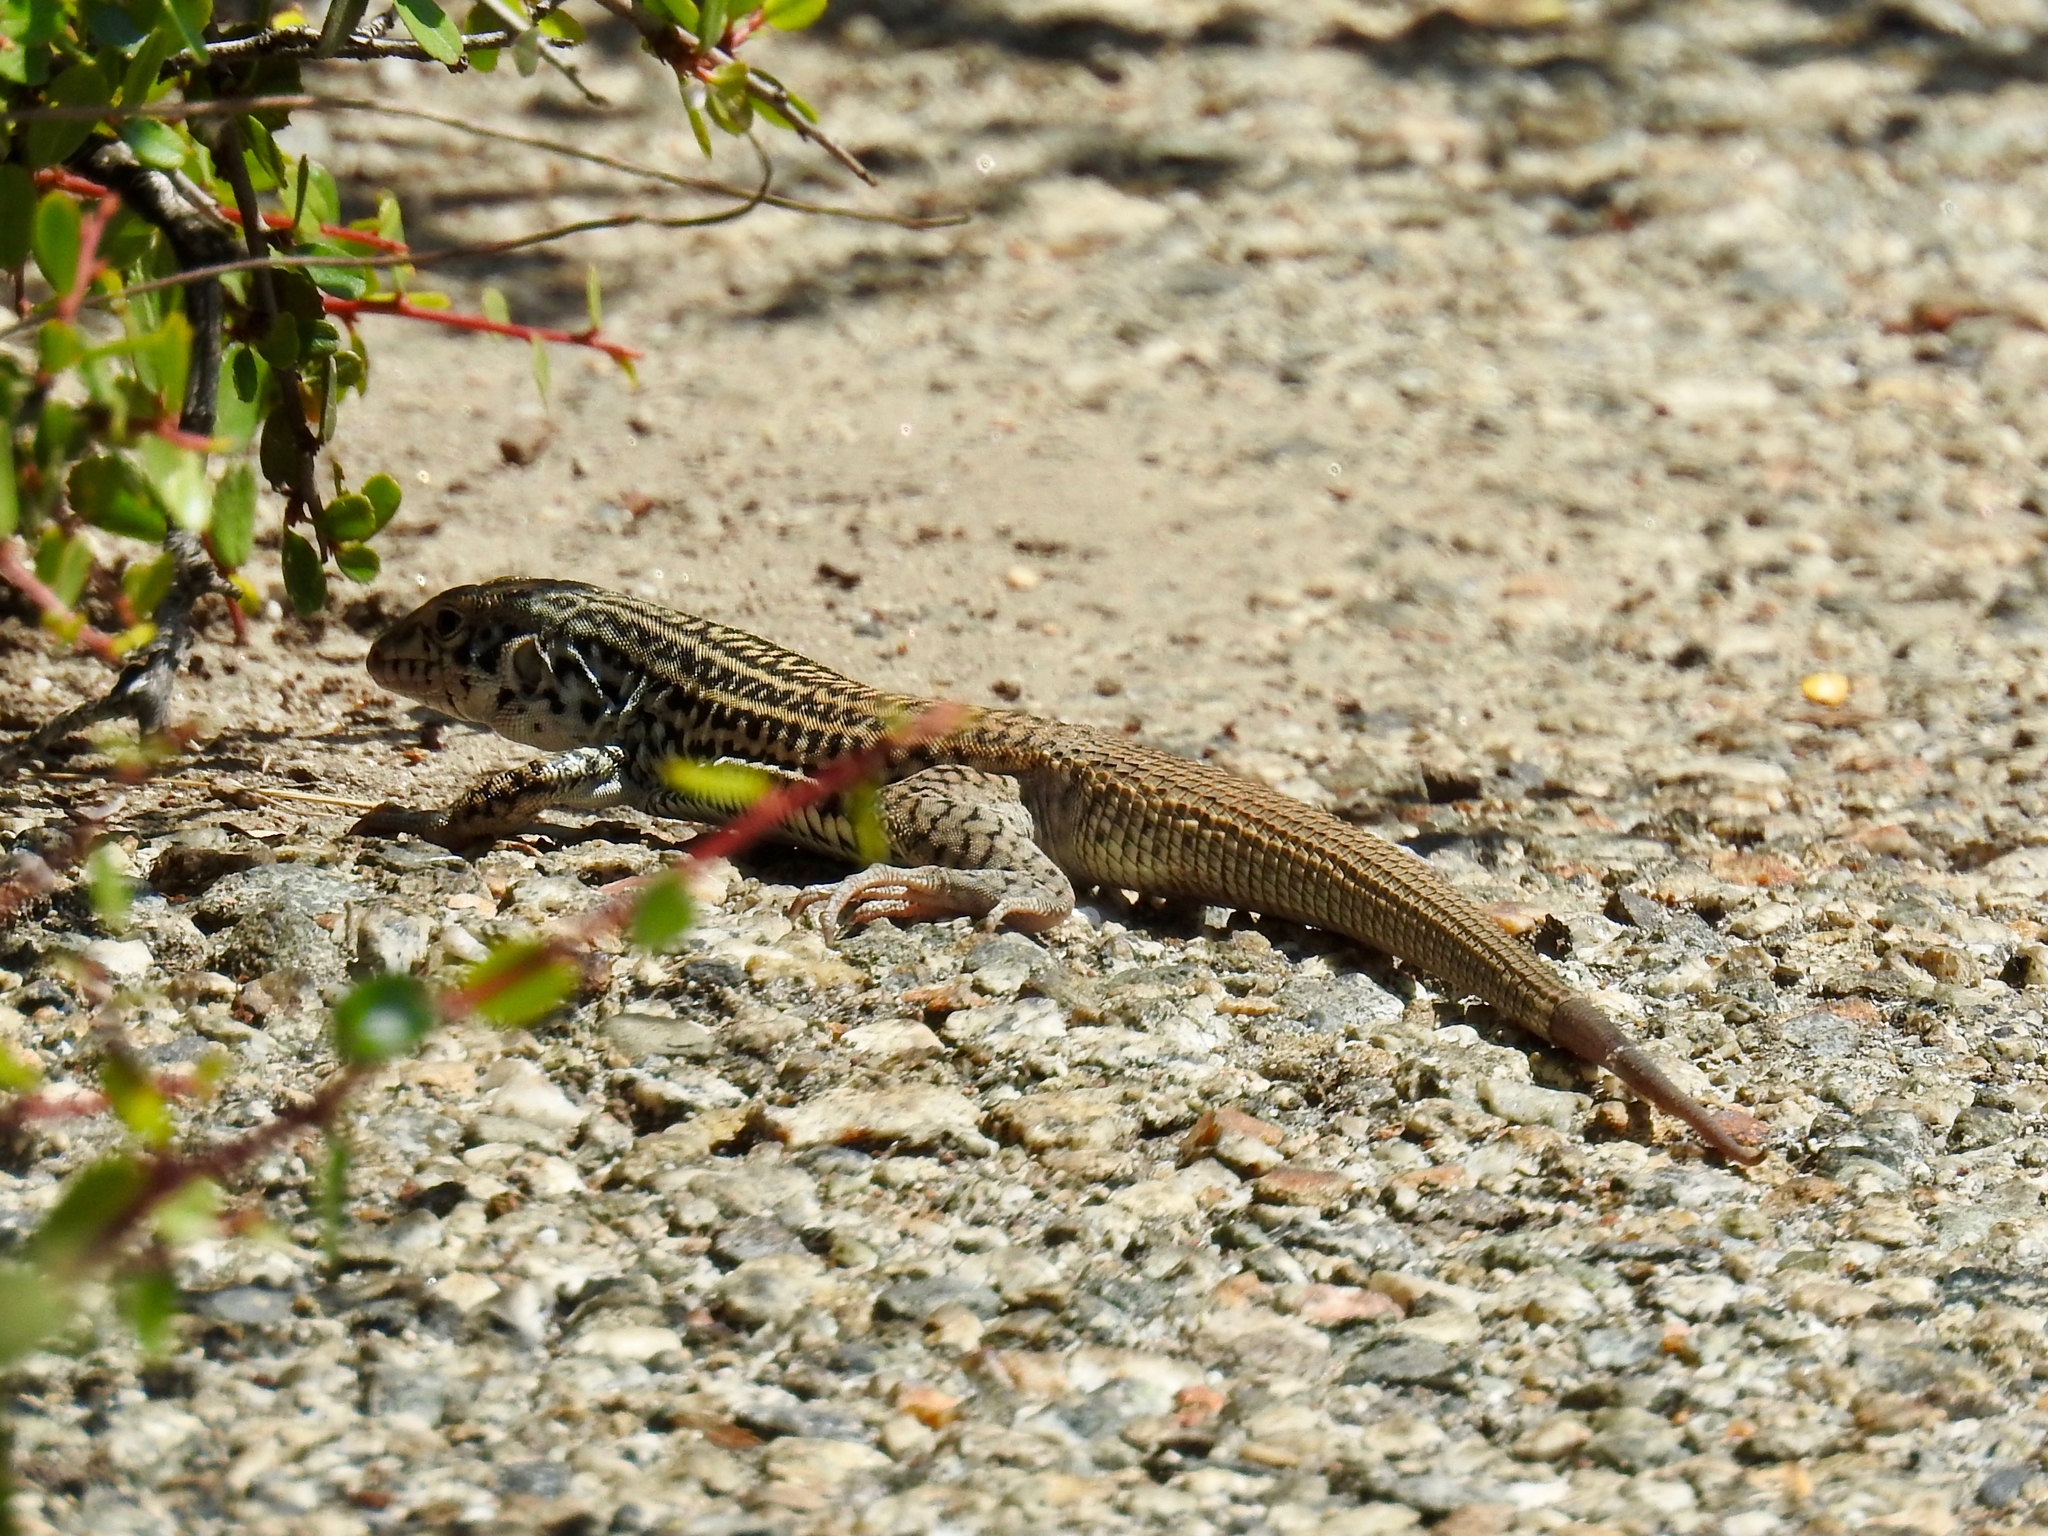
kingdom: Animalia
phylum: Chordata
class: Squamata
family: Teiidae
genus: Aspidoscelis
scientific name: Aspidoscelis tigris
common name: Tiger whiptail
